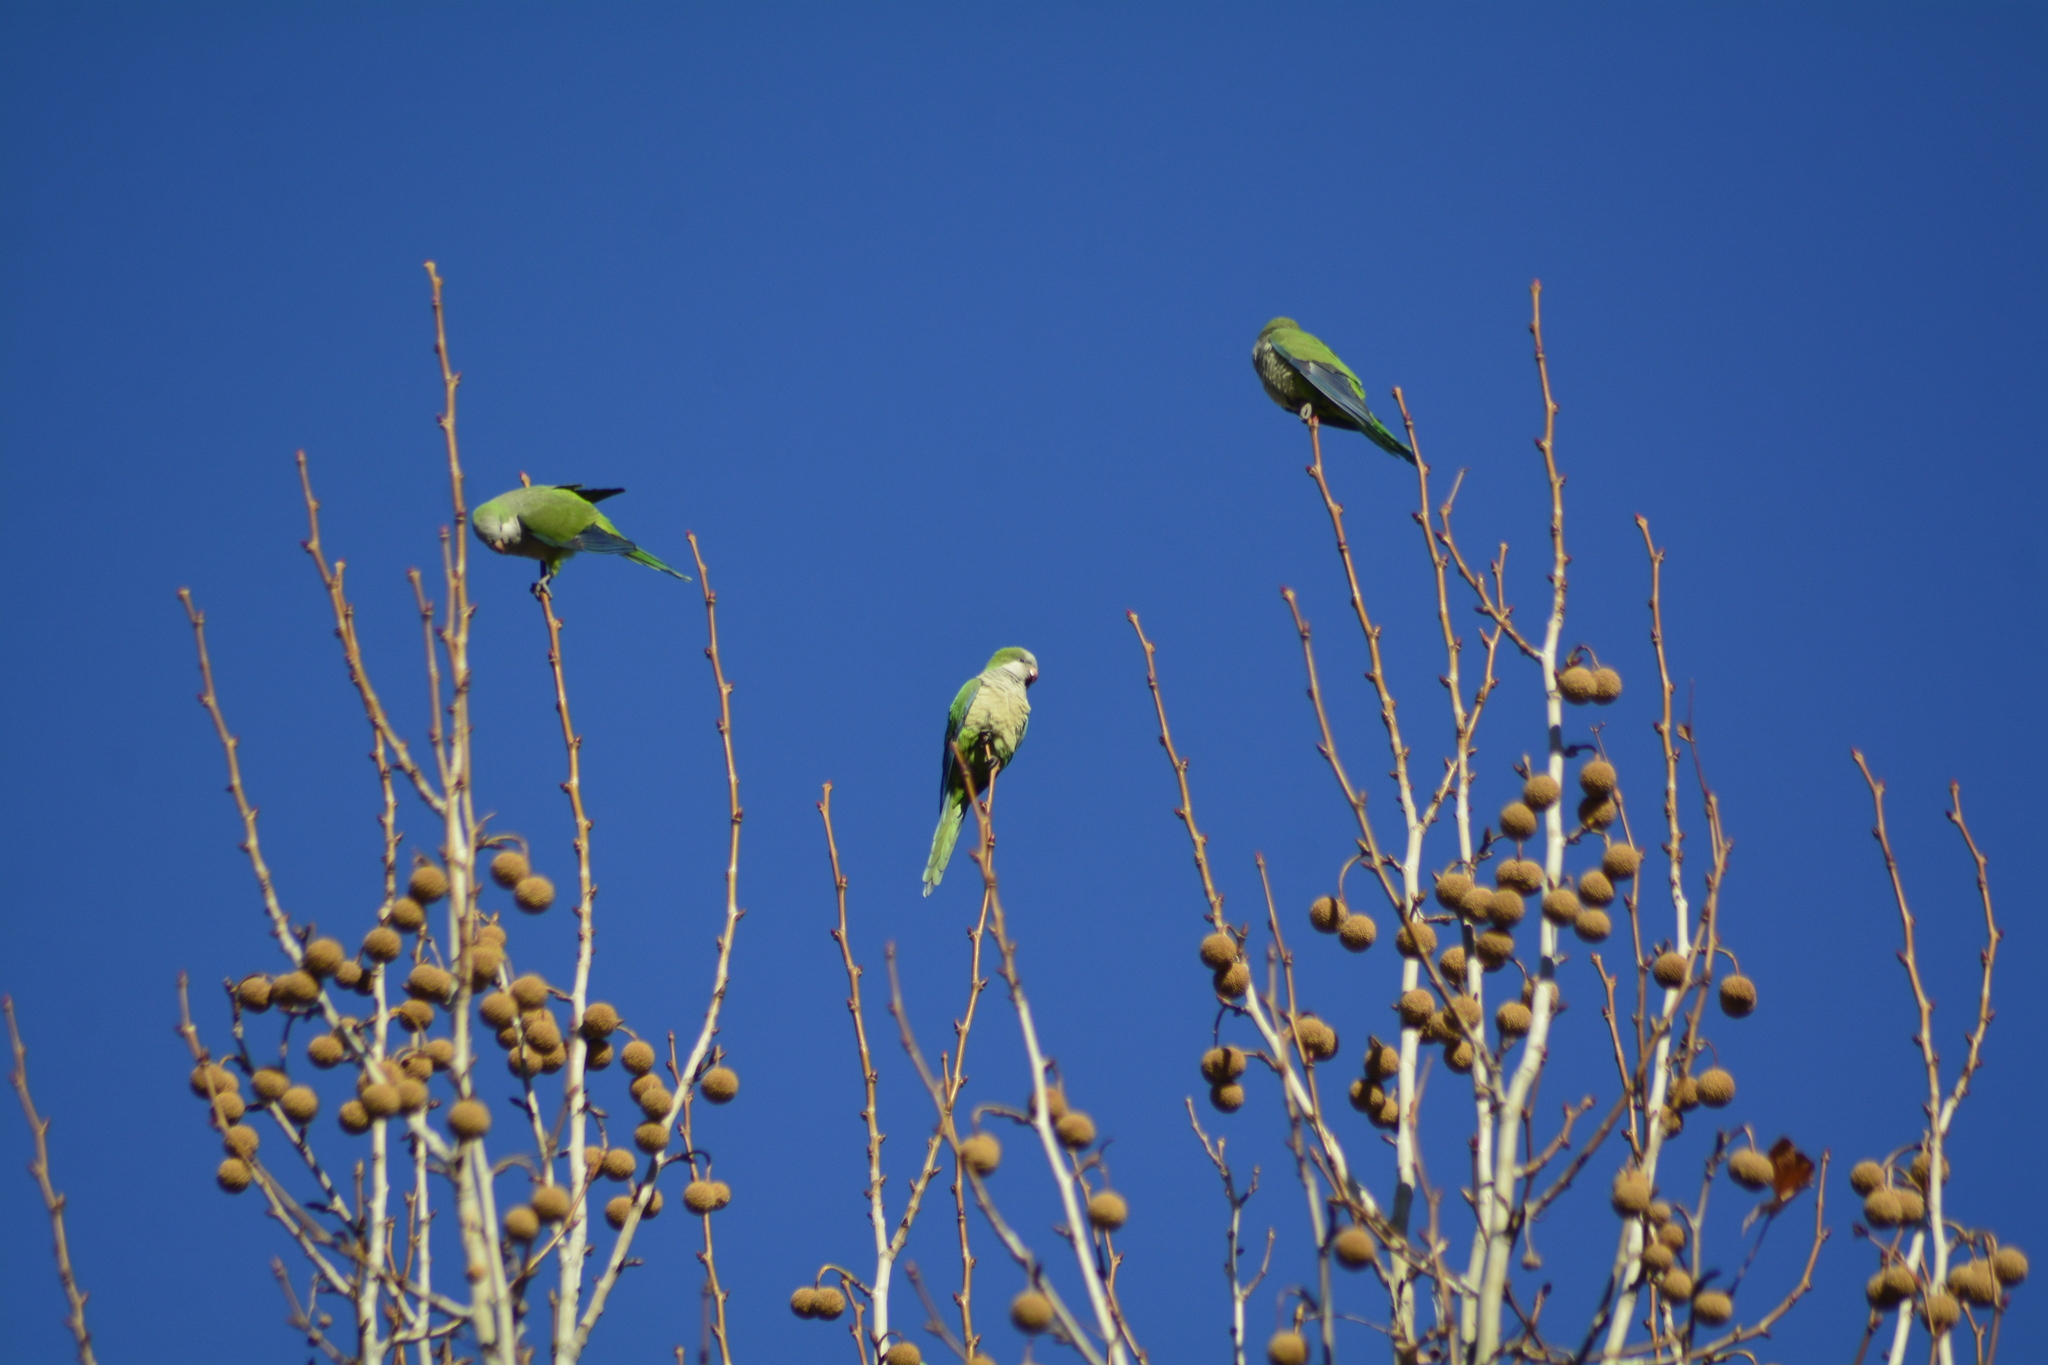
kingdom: Animalia
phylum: Chordata
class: Aves
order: Psittaciformes
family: Psittacidae
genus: Myiopsitta
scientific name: Myiopsitta monachus
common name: Monk parakeet
